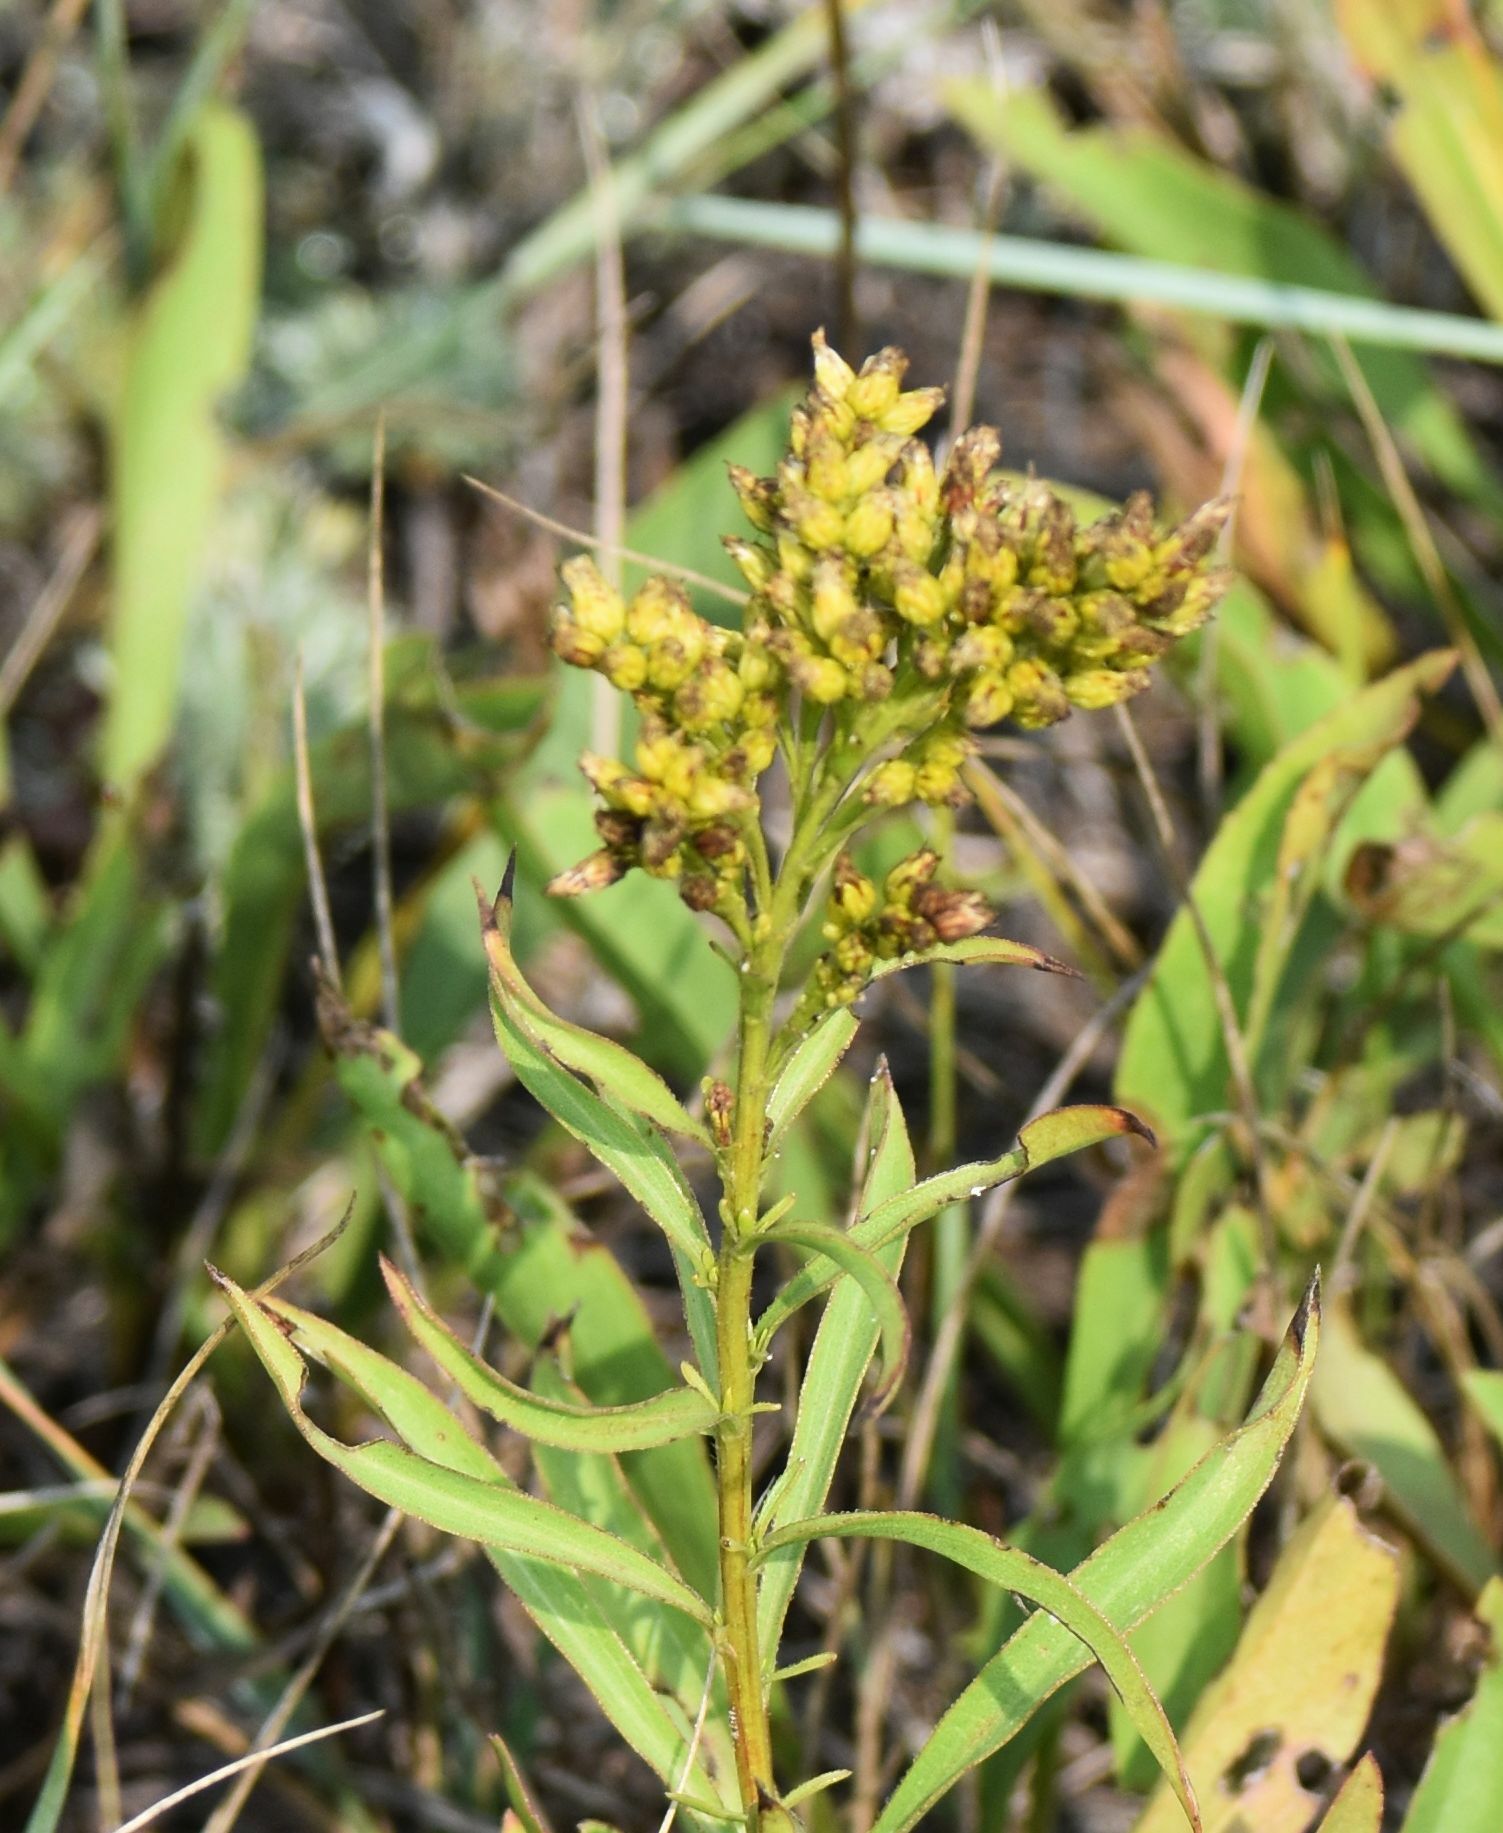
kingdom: Plantae
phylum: Tracheophyta
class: Magnoliopsida
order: Asterales
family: Asteraceae
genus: Solidago
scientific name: Solidago missouriensis
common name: Prairie goldenrod
